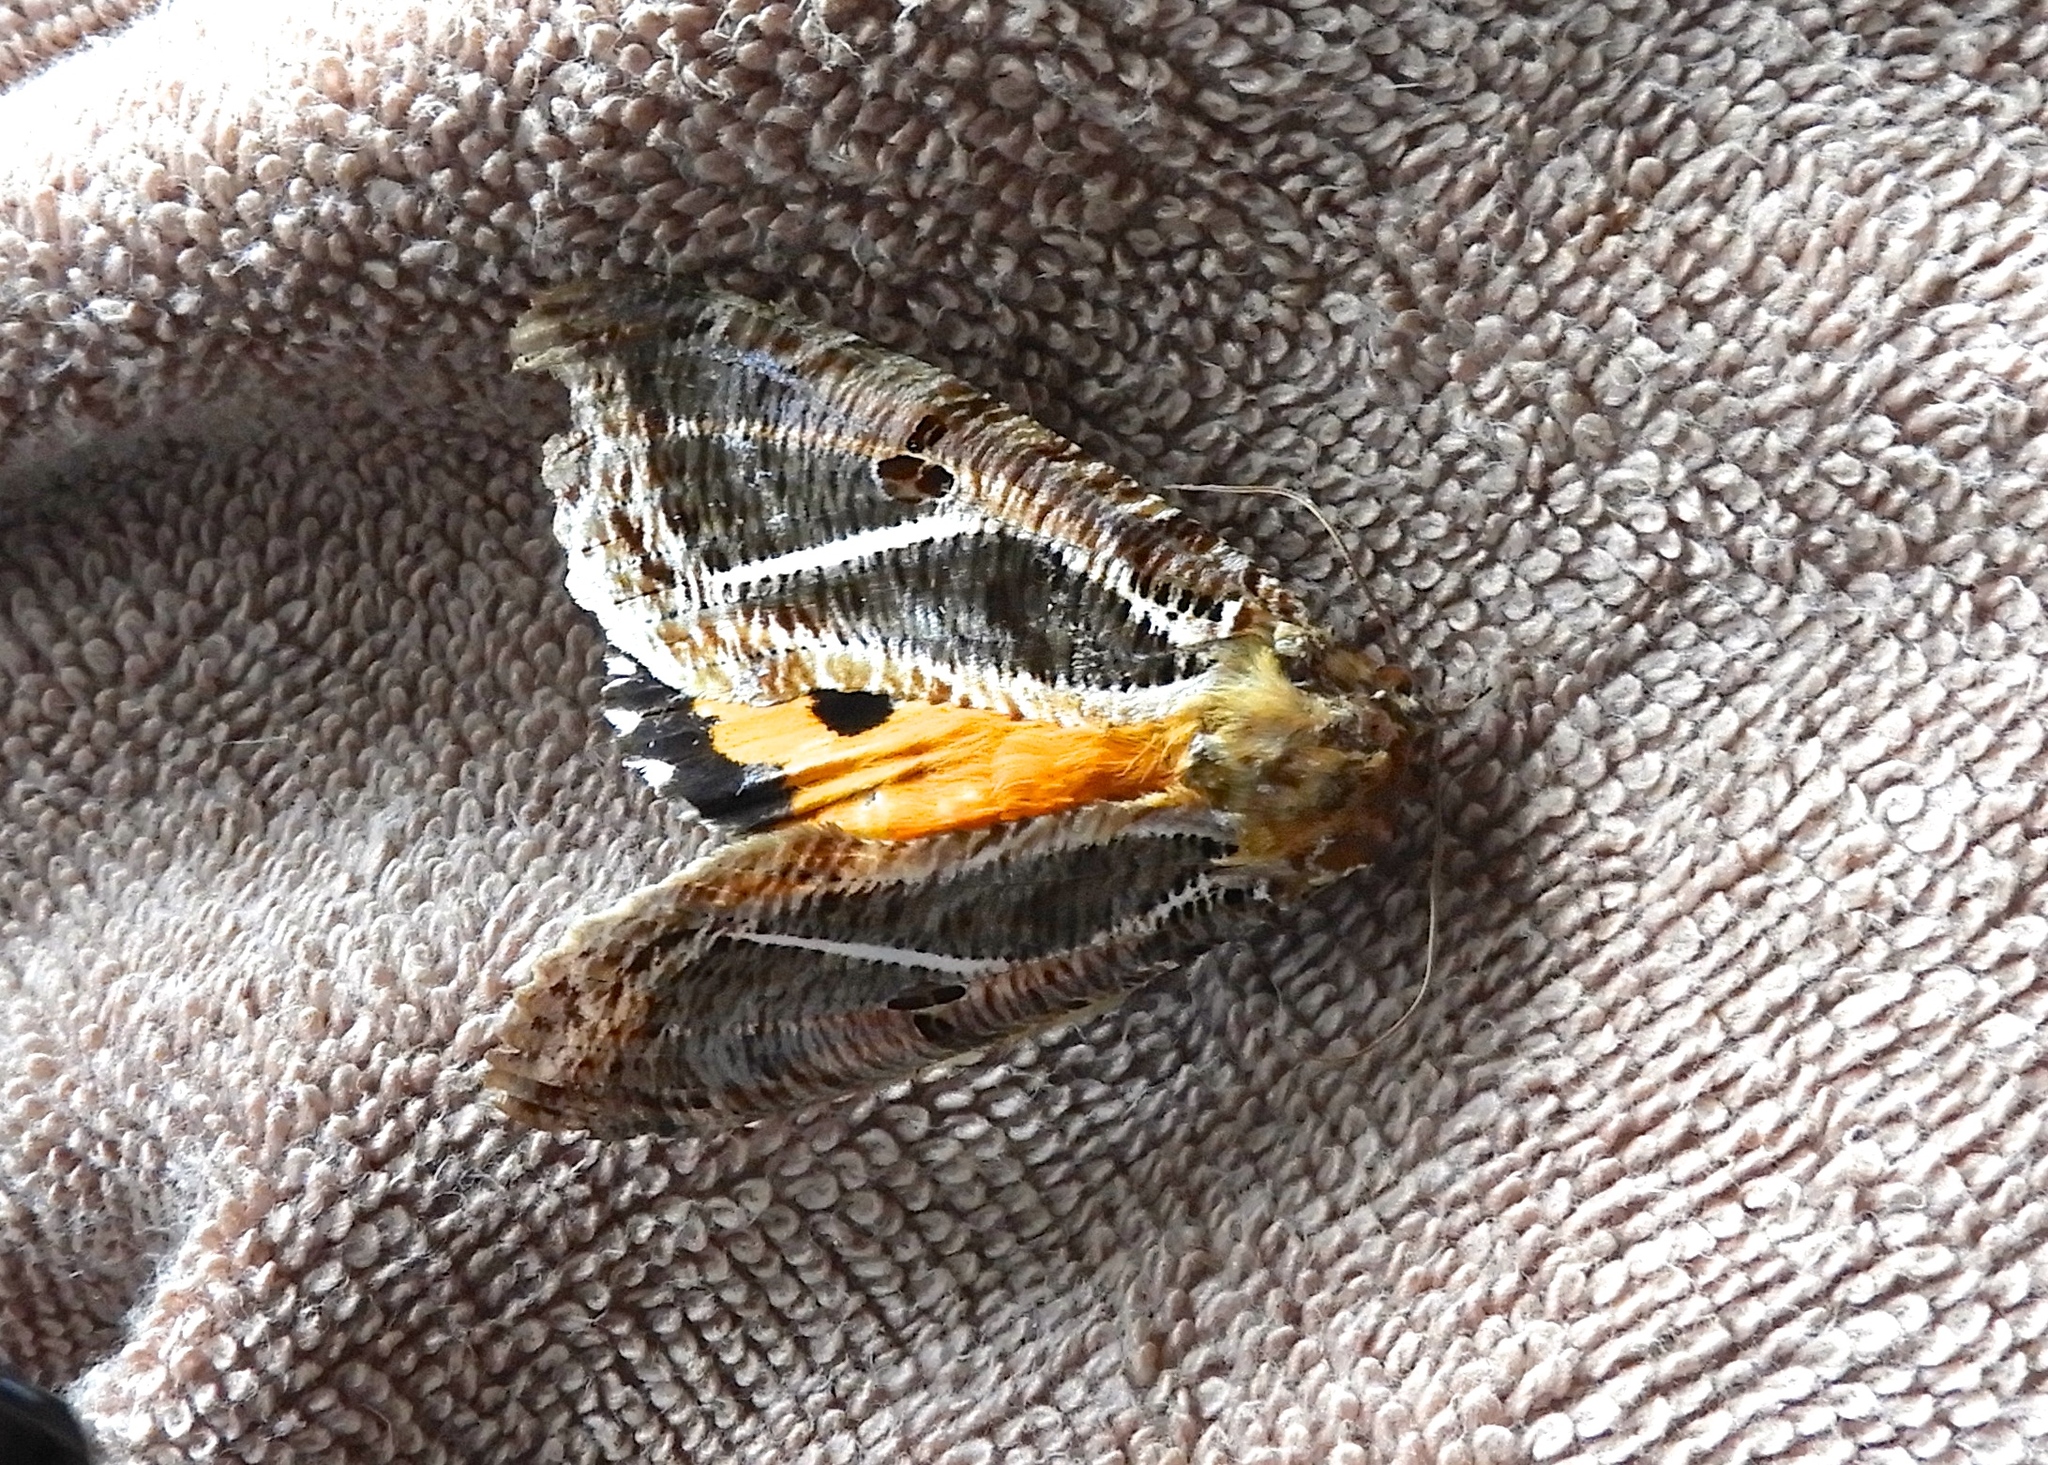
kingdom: Animalia
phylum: Arthropoda
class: Insecta
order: Lepidoptera
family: Erebidae
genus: Eudocima
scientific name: Eudocima apta
